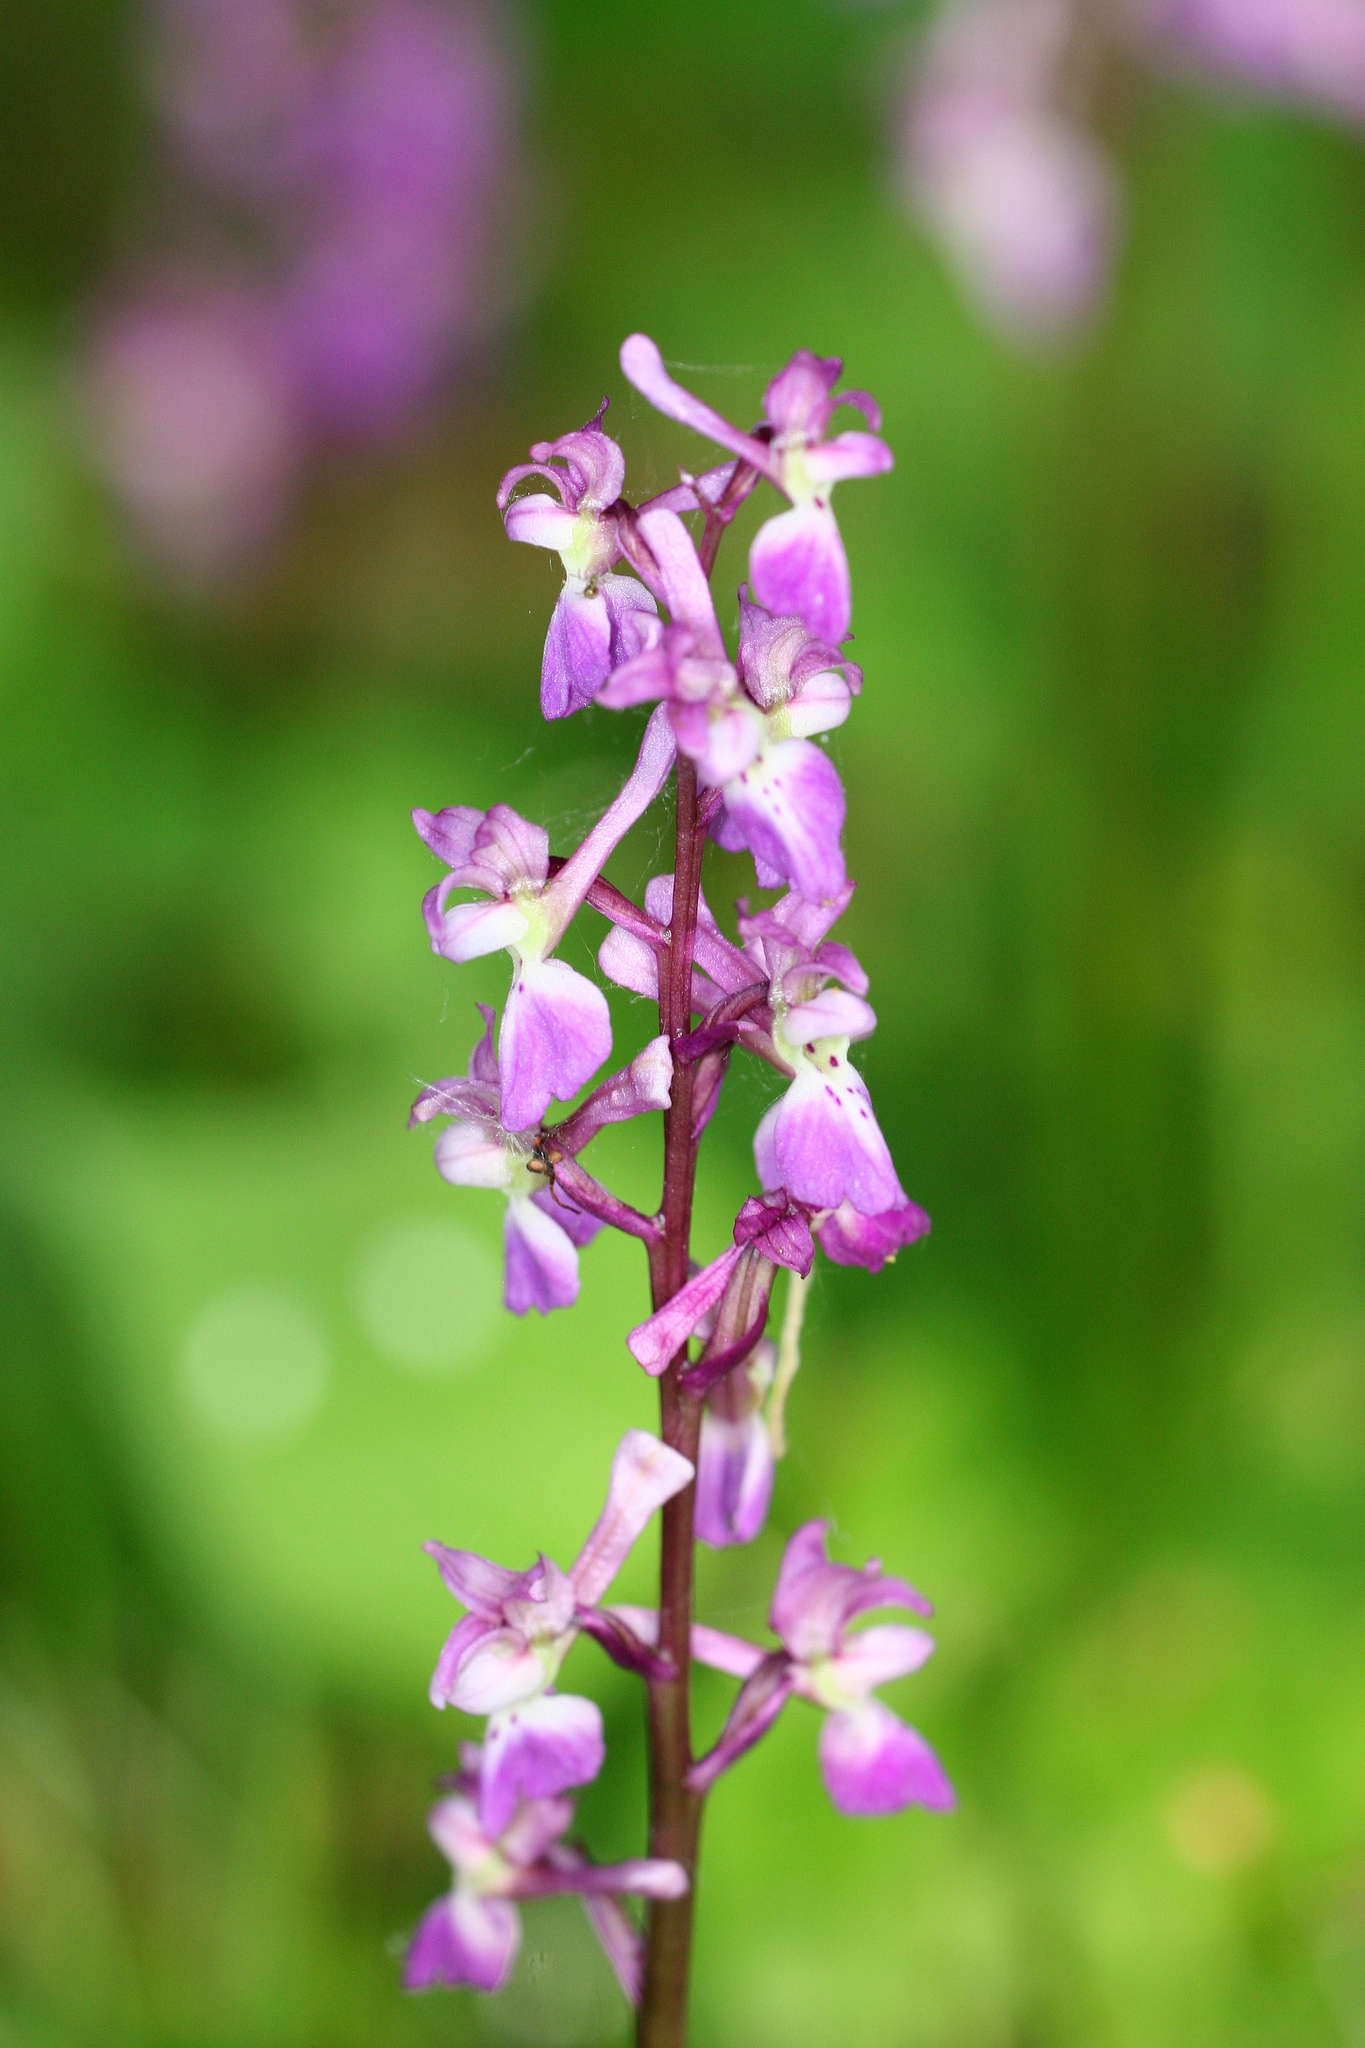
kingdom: Plantae
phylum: Tracheophyta
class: Liliopsida
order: Asparagales
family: Orchidaceae
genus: Orchis
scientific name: Orchis mascula
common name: Early-purple orchid
